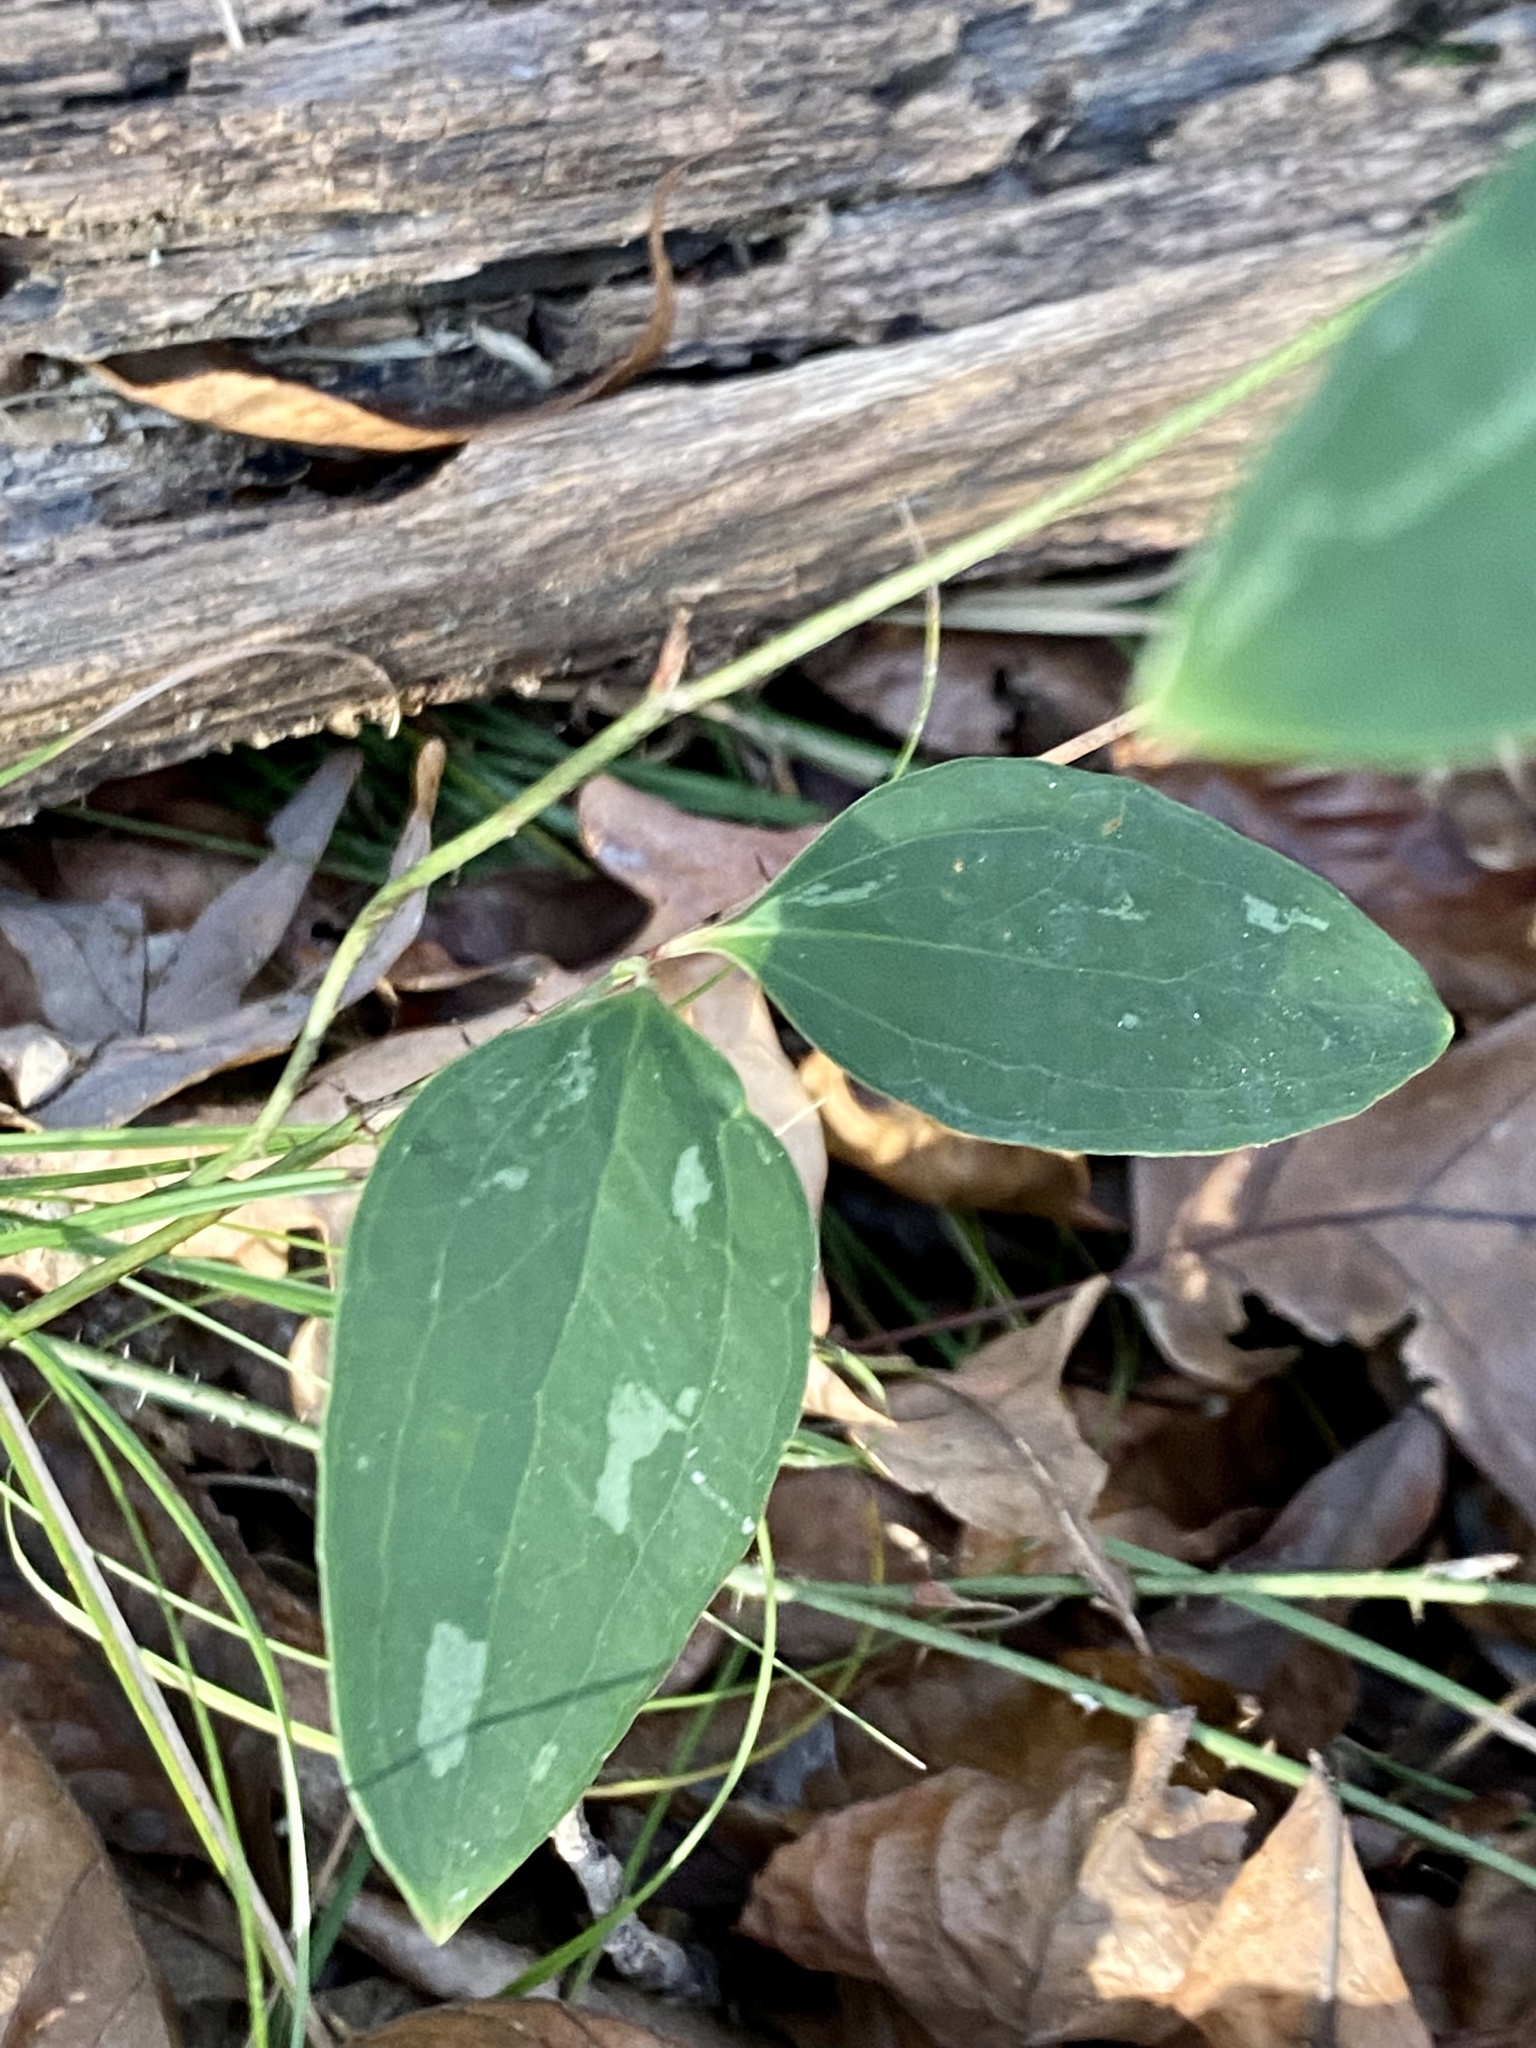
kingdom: Plantae
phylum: Tracheophyta
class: Liliopsida
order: Liliales
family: Smilacaceae
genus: Smilax
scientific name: Smilax glauca
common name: Cat greenbrier
